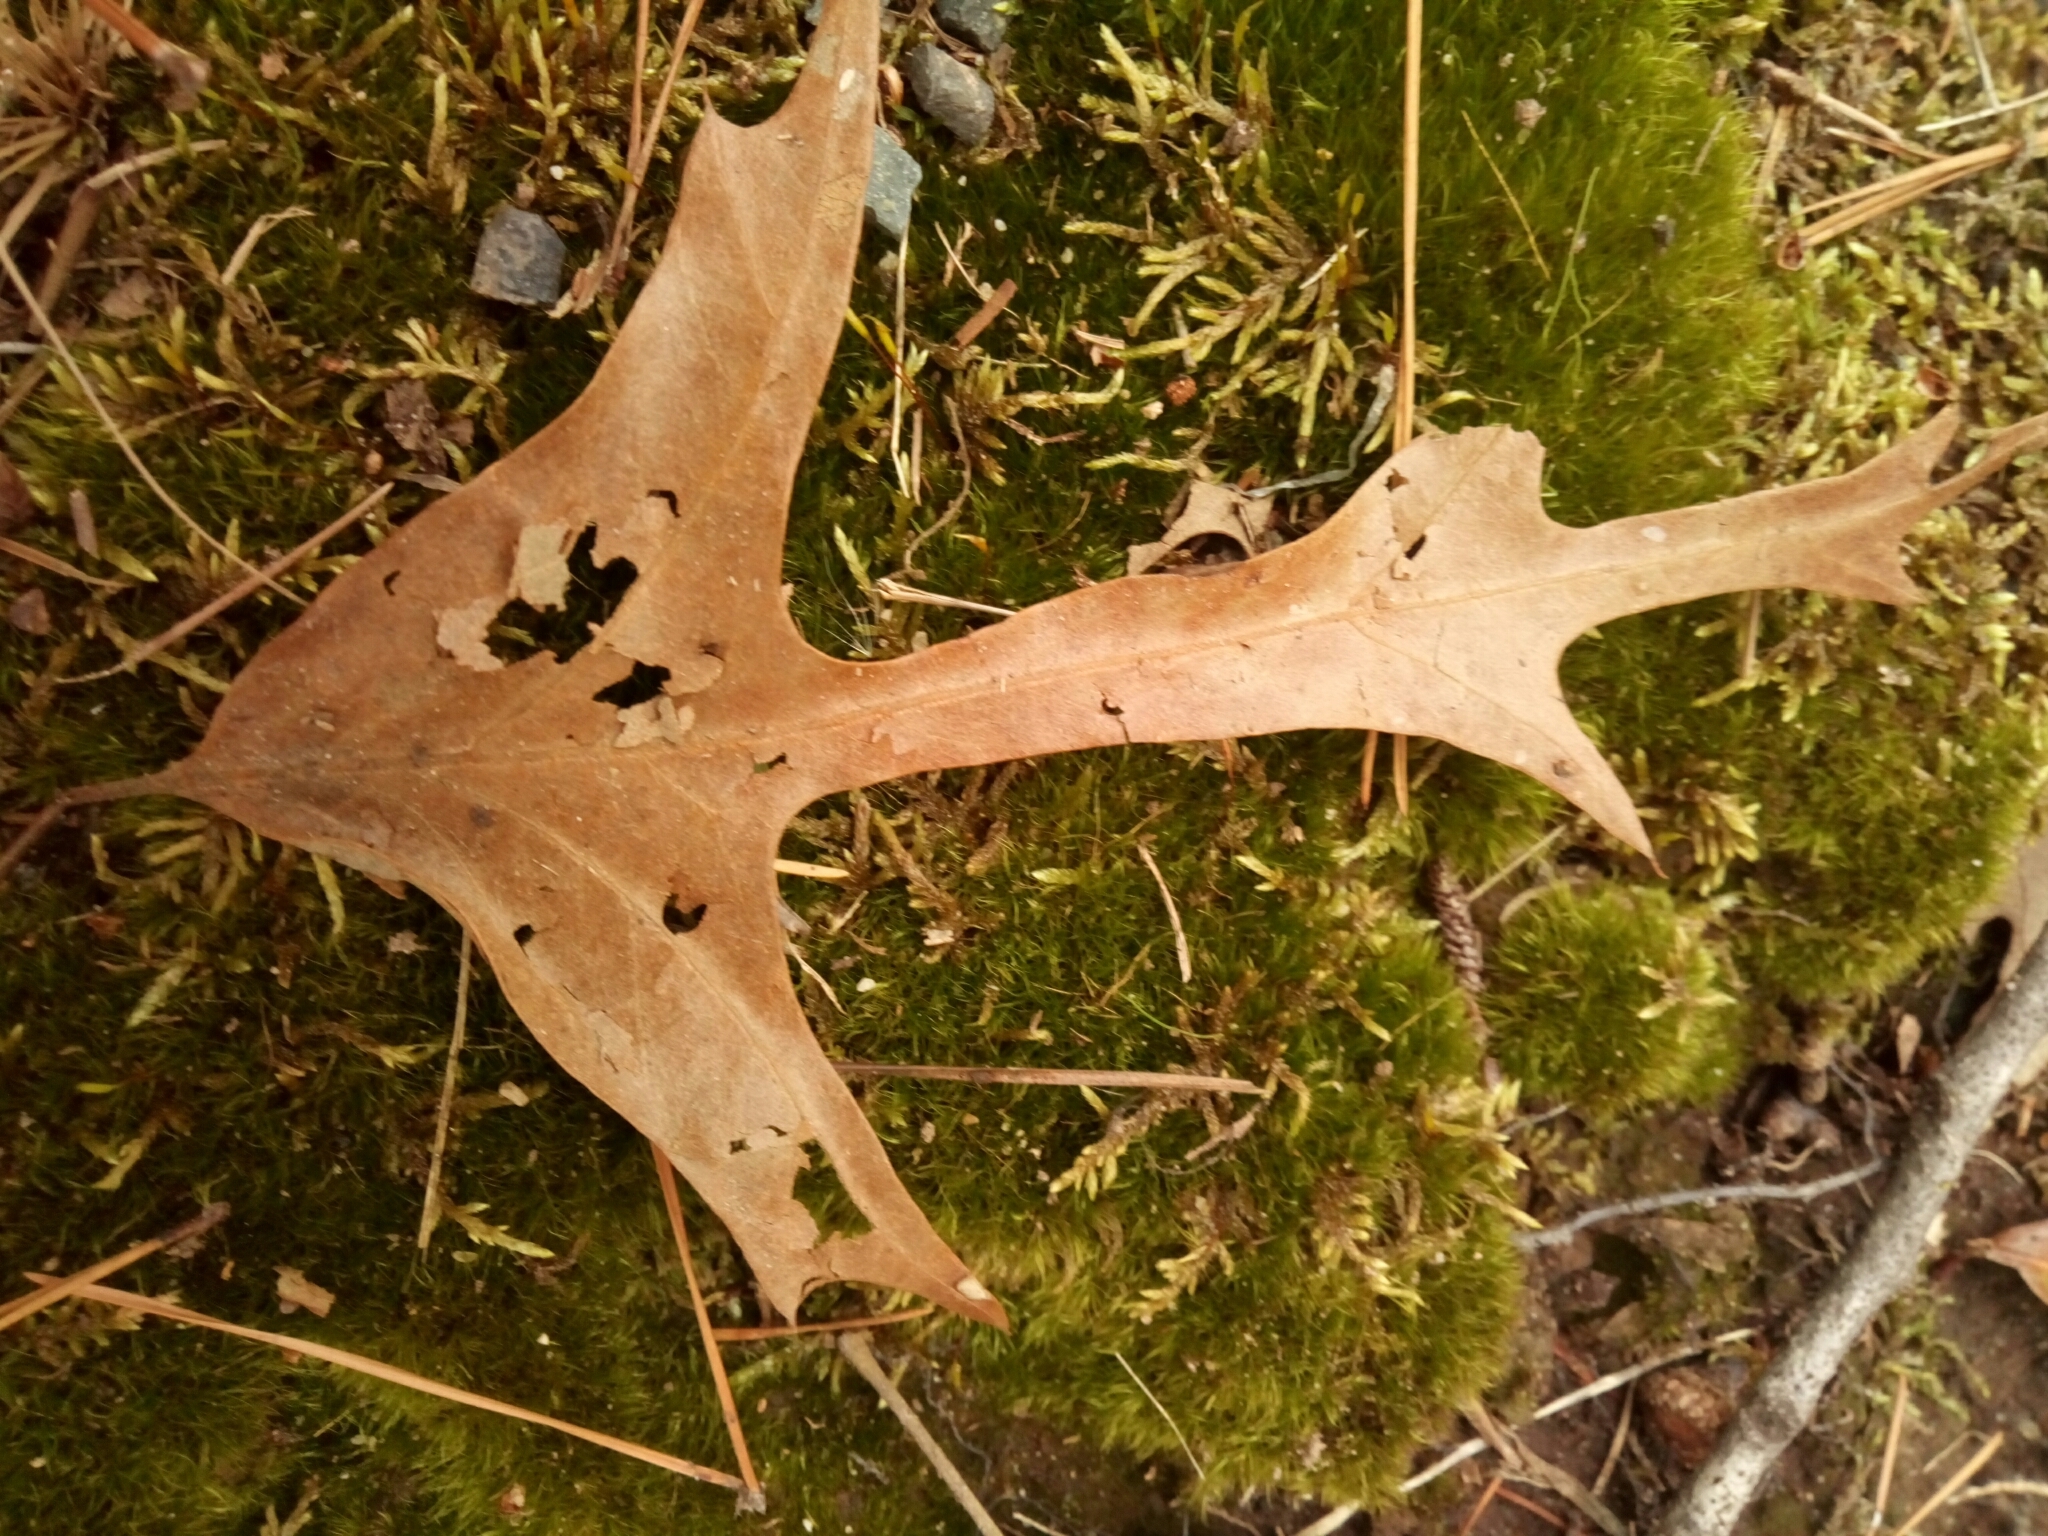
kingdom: Plantae
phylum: Tracheophyta
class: Magnoliopsida
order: Fagales
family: Fagaceae
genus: Quercus
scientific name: Quercus falcata
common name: Southern red oak
